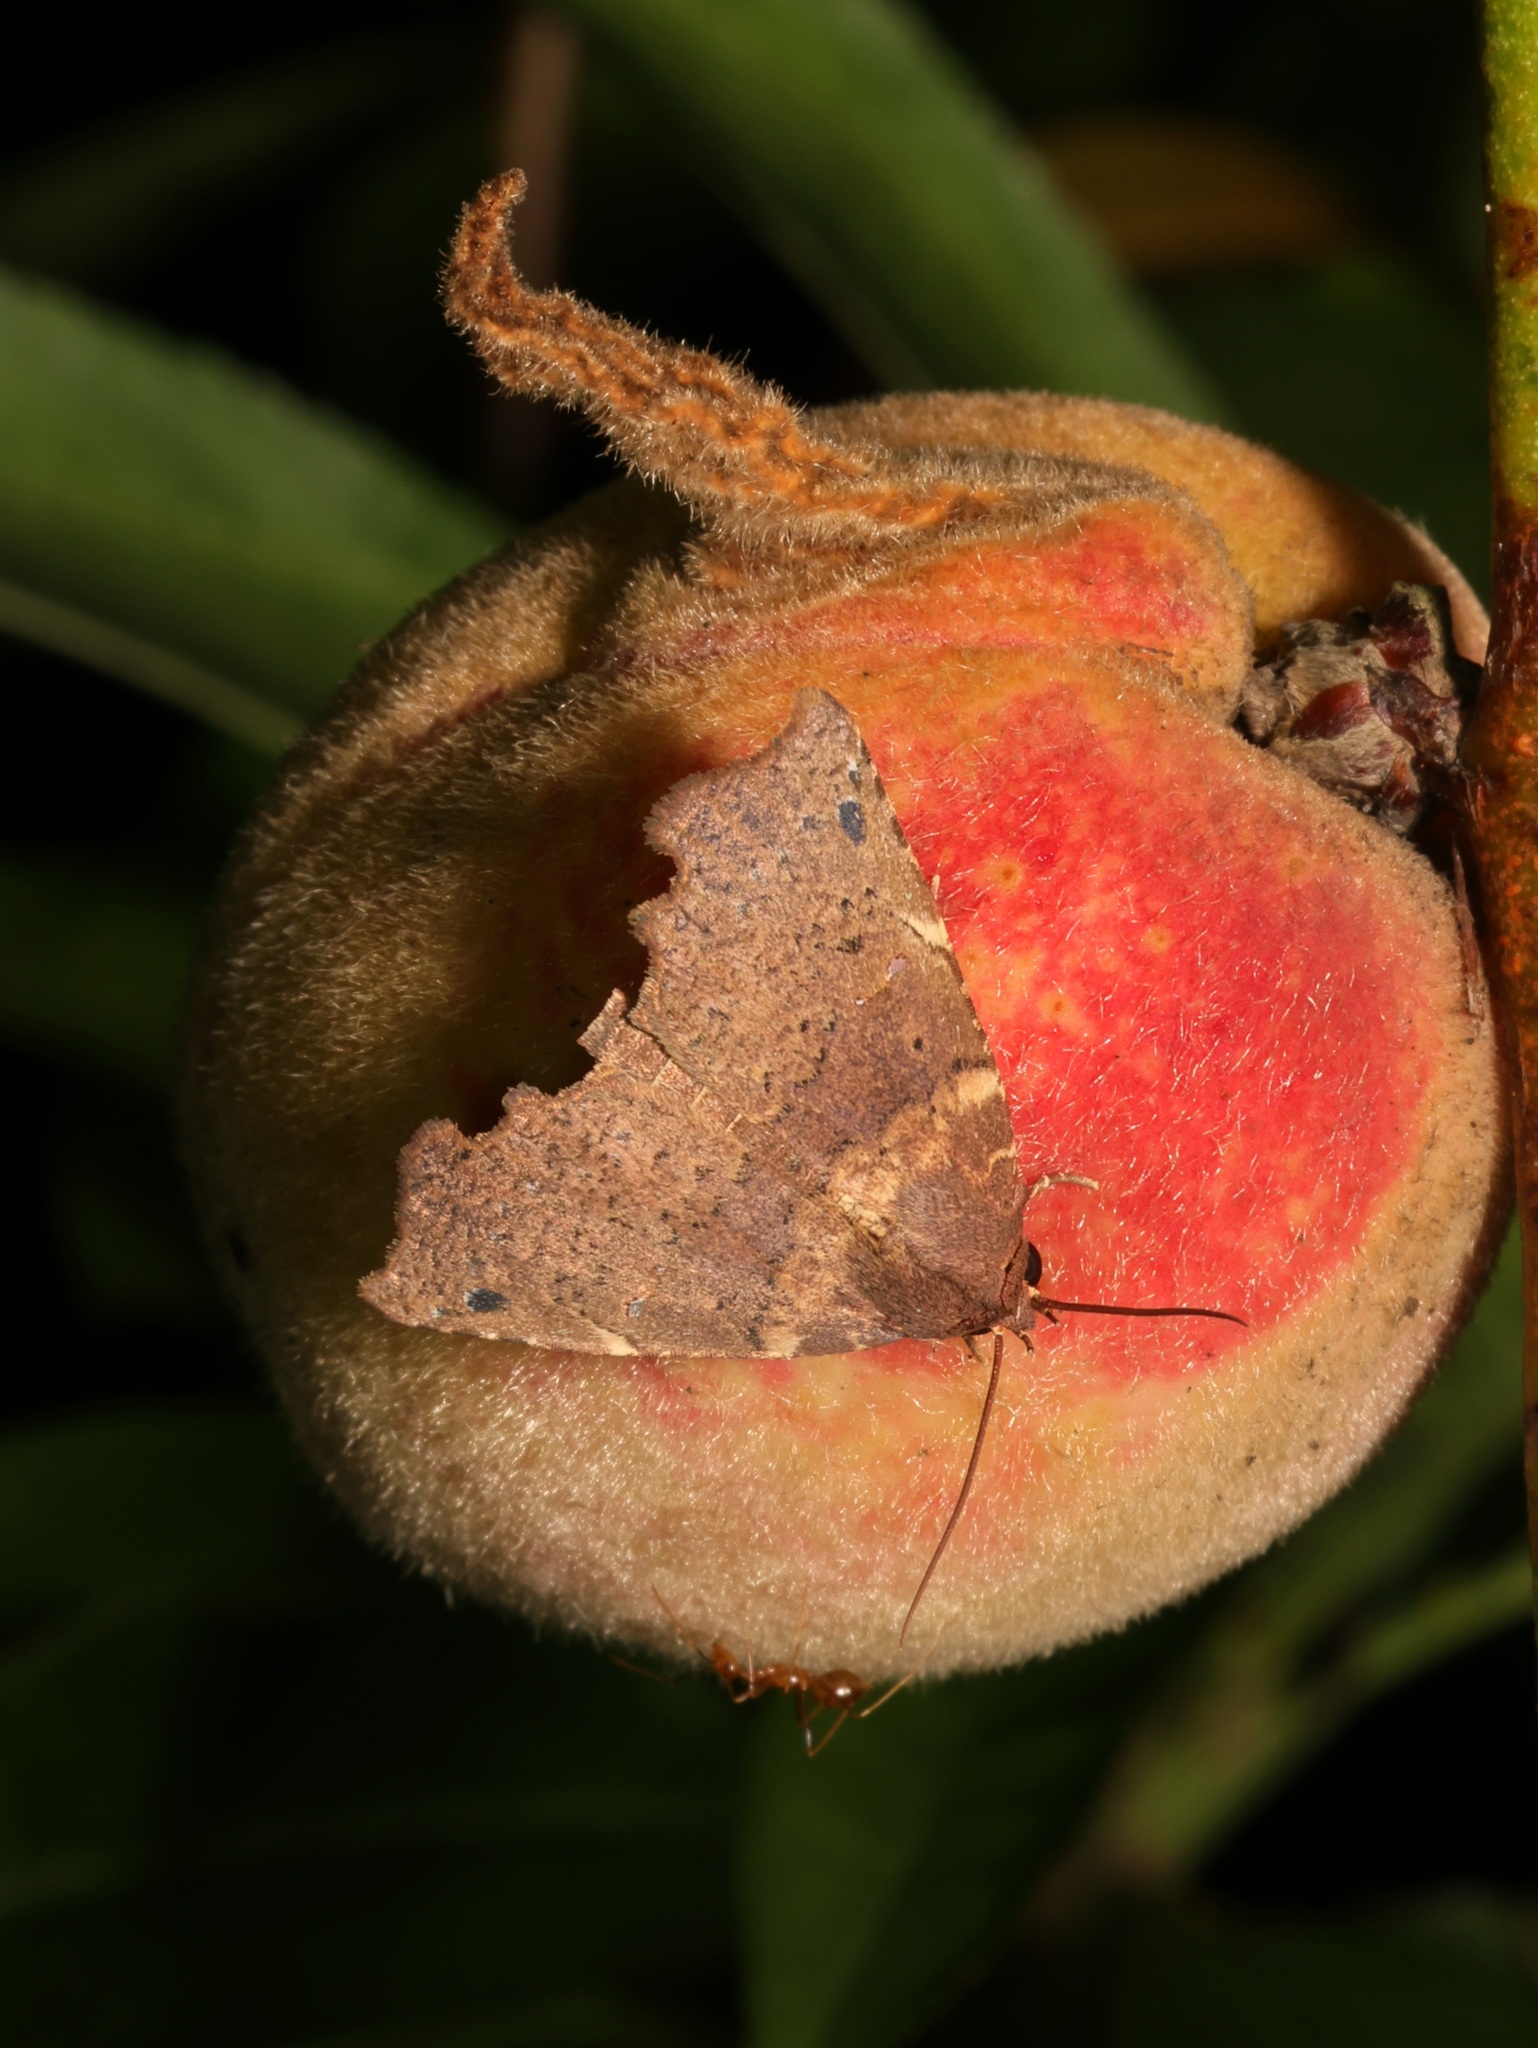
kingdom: Animalia
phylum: Arthropoda
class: Insecta
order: Lepidoptera
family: Erebidae
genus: Falana
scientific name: Falana sordida
